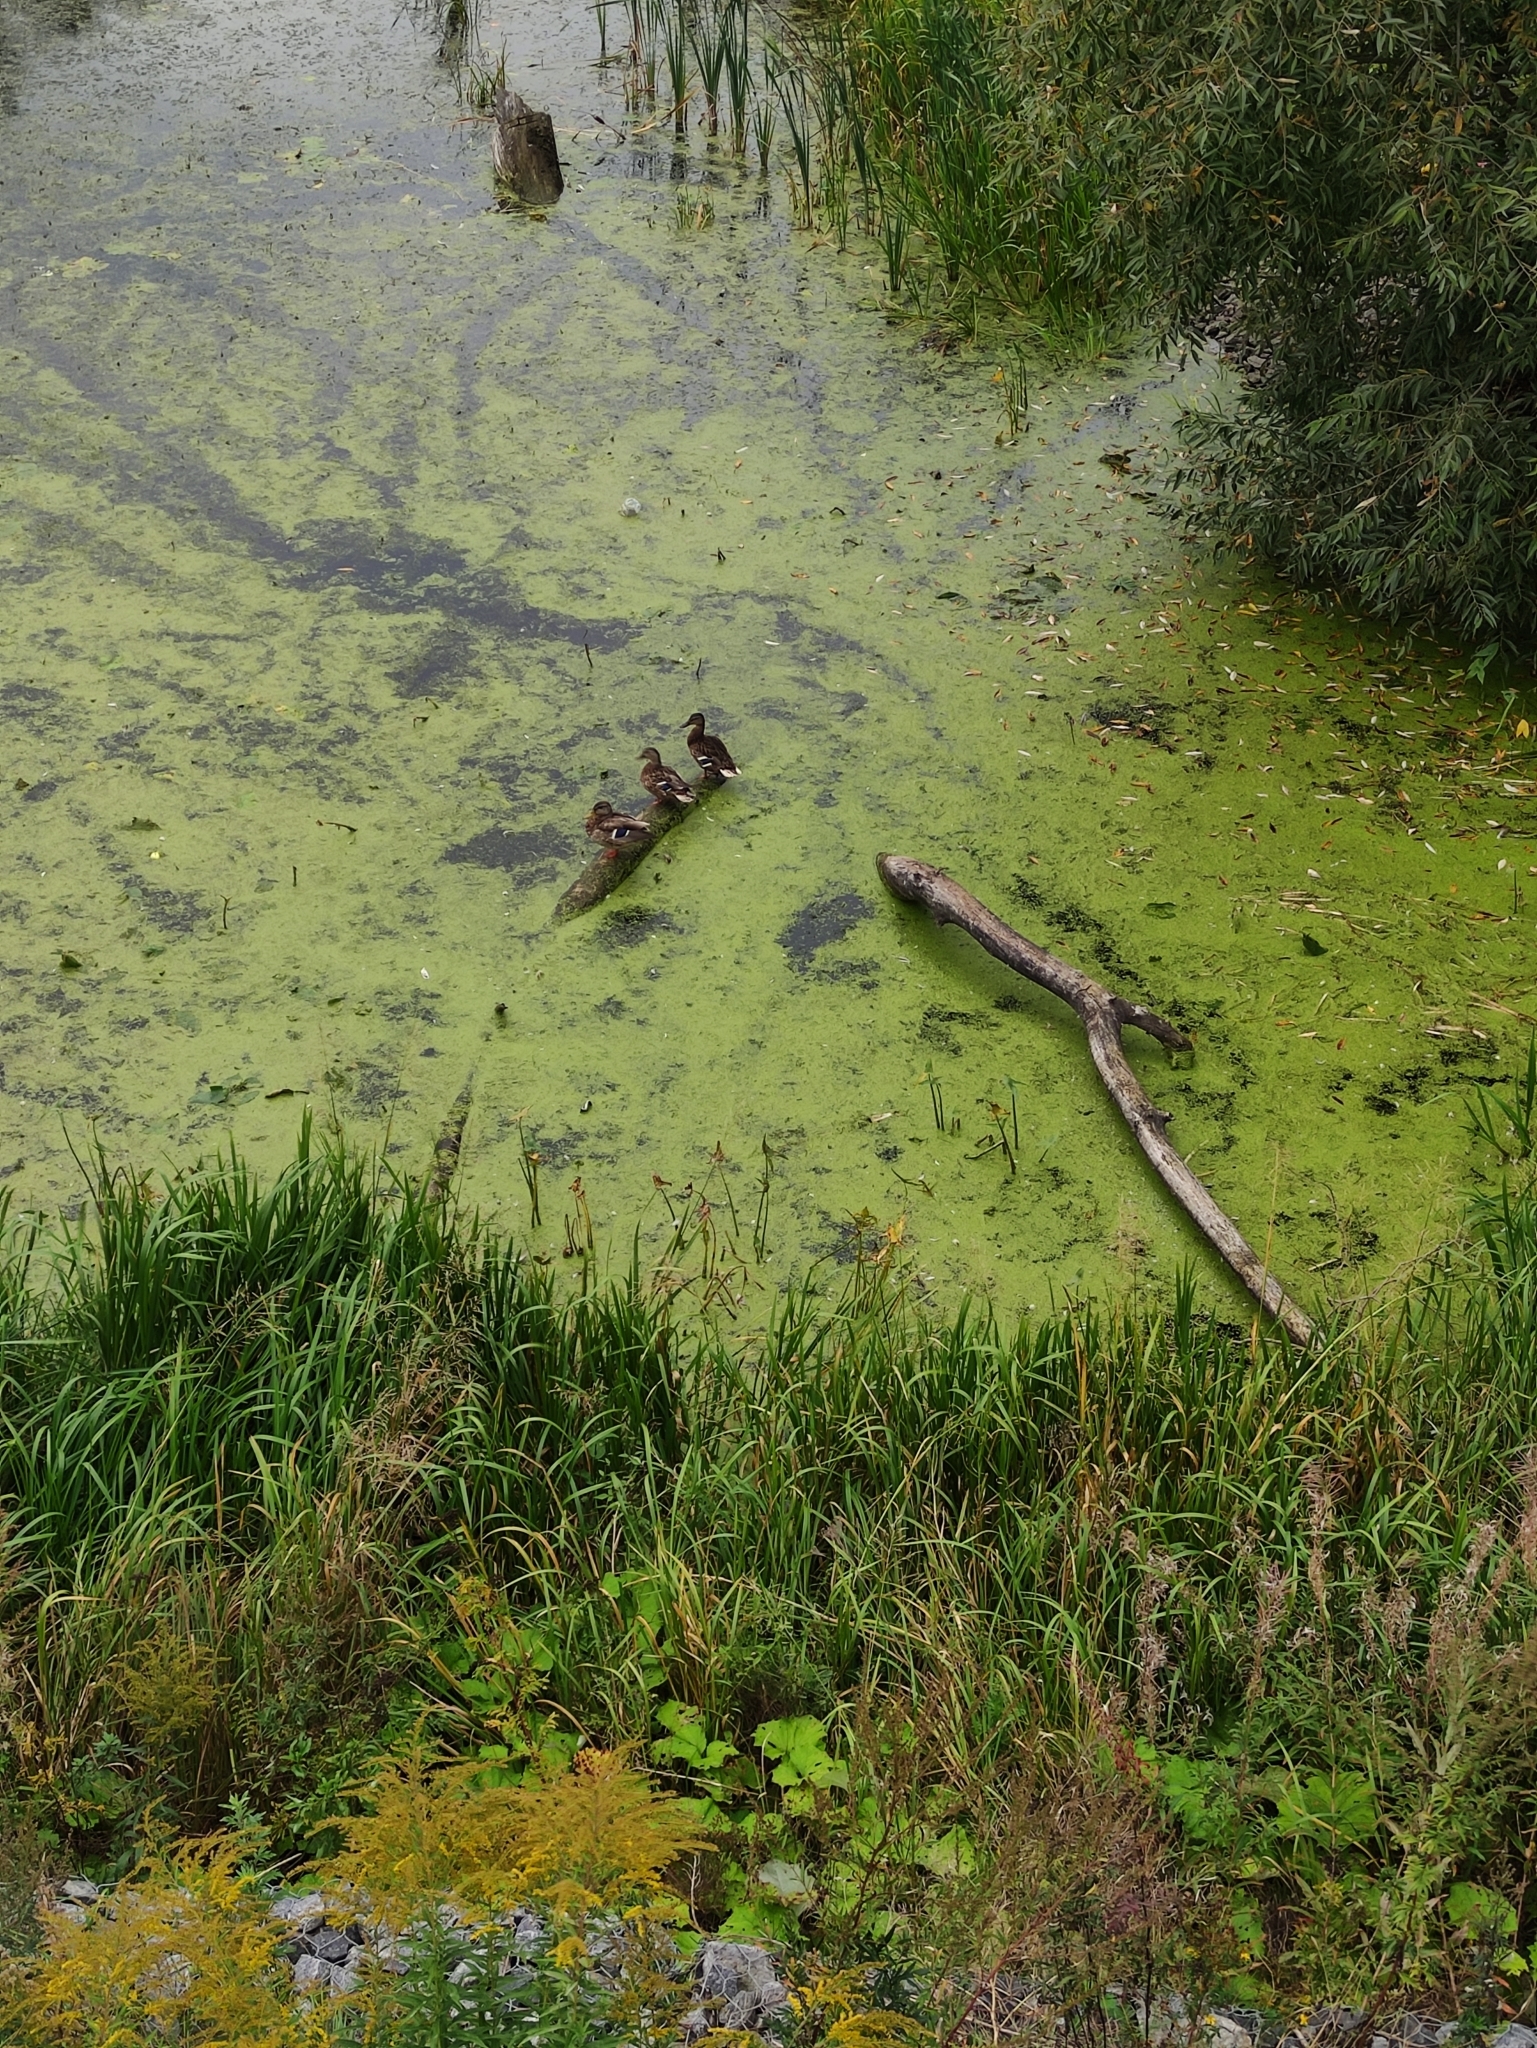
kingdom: Animalia
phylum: Chordata
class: Aves
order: Anseriformes
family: Anatidae
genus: Anas
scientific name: Anas platyrhynchos
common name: Mallard
